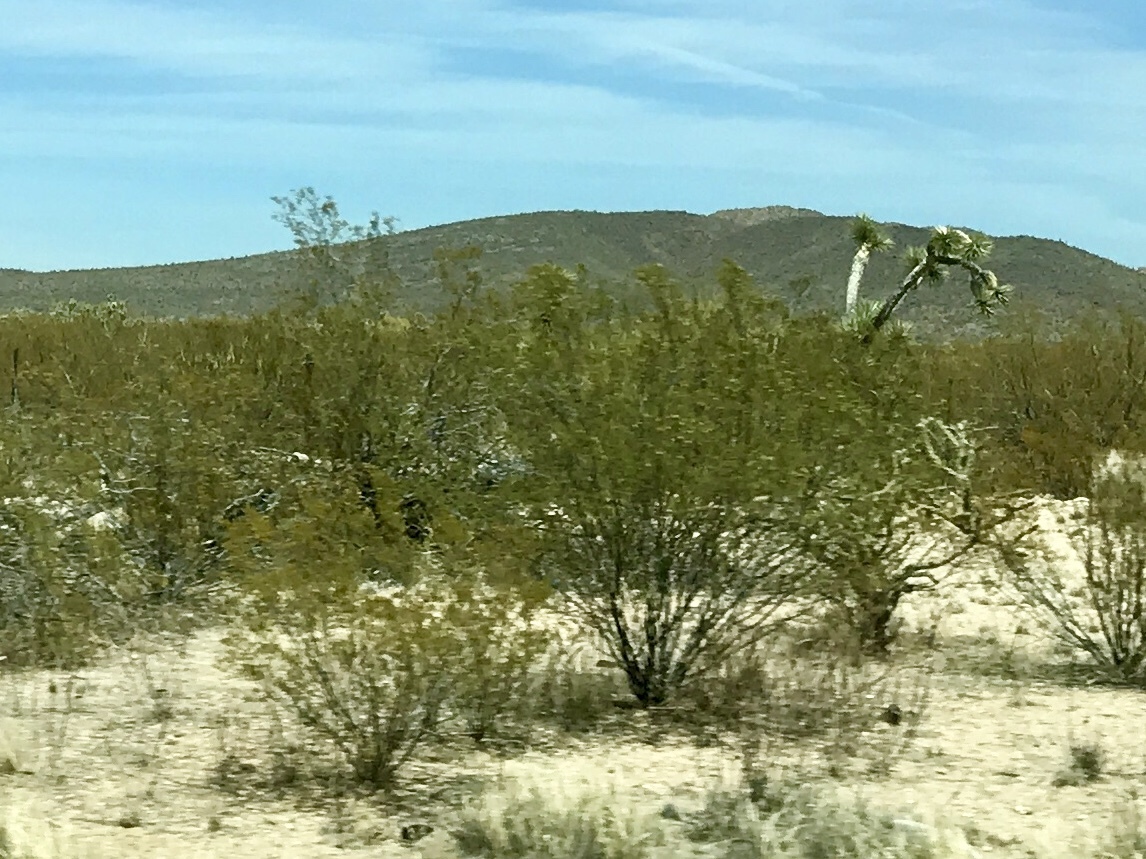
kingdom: Plantae
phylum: Tracheophyta
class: Magnoliopsida
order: Zygophyllales
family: Zygophyllaceae
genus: Larrea
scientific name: Larrea tridentata
